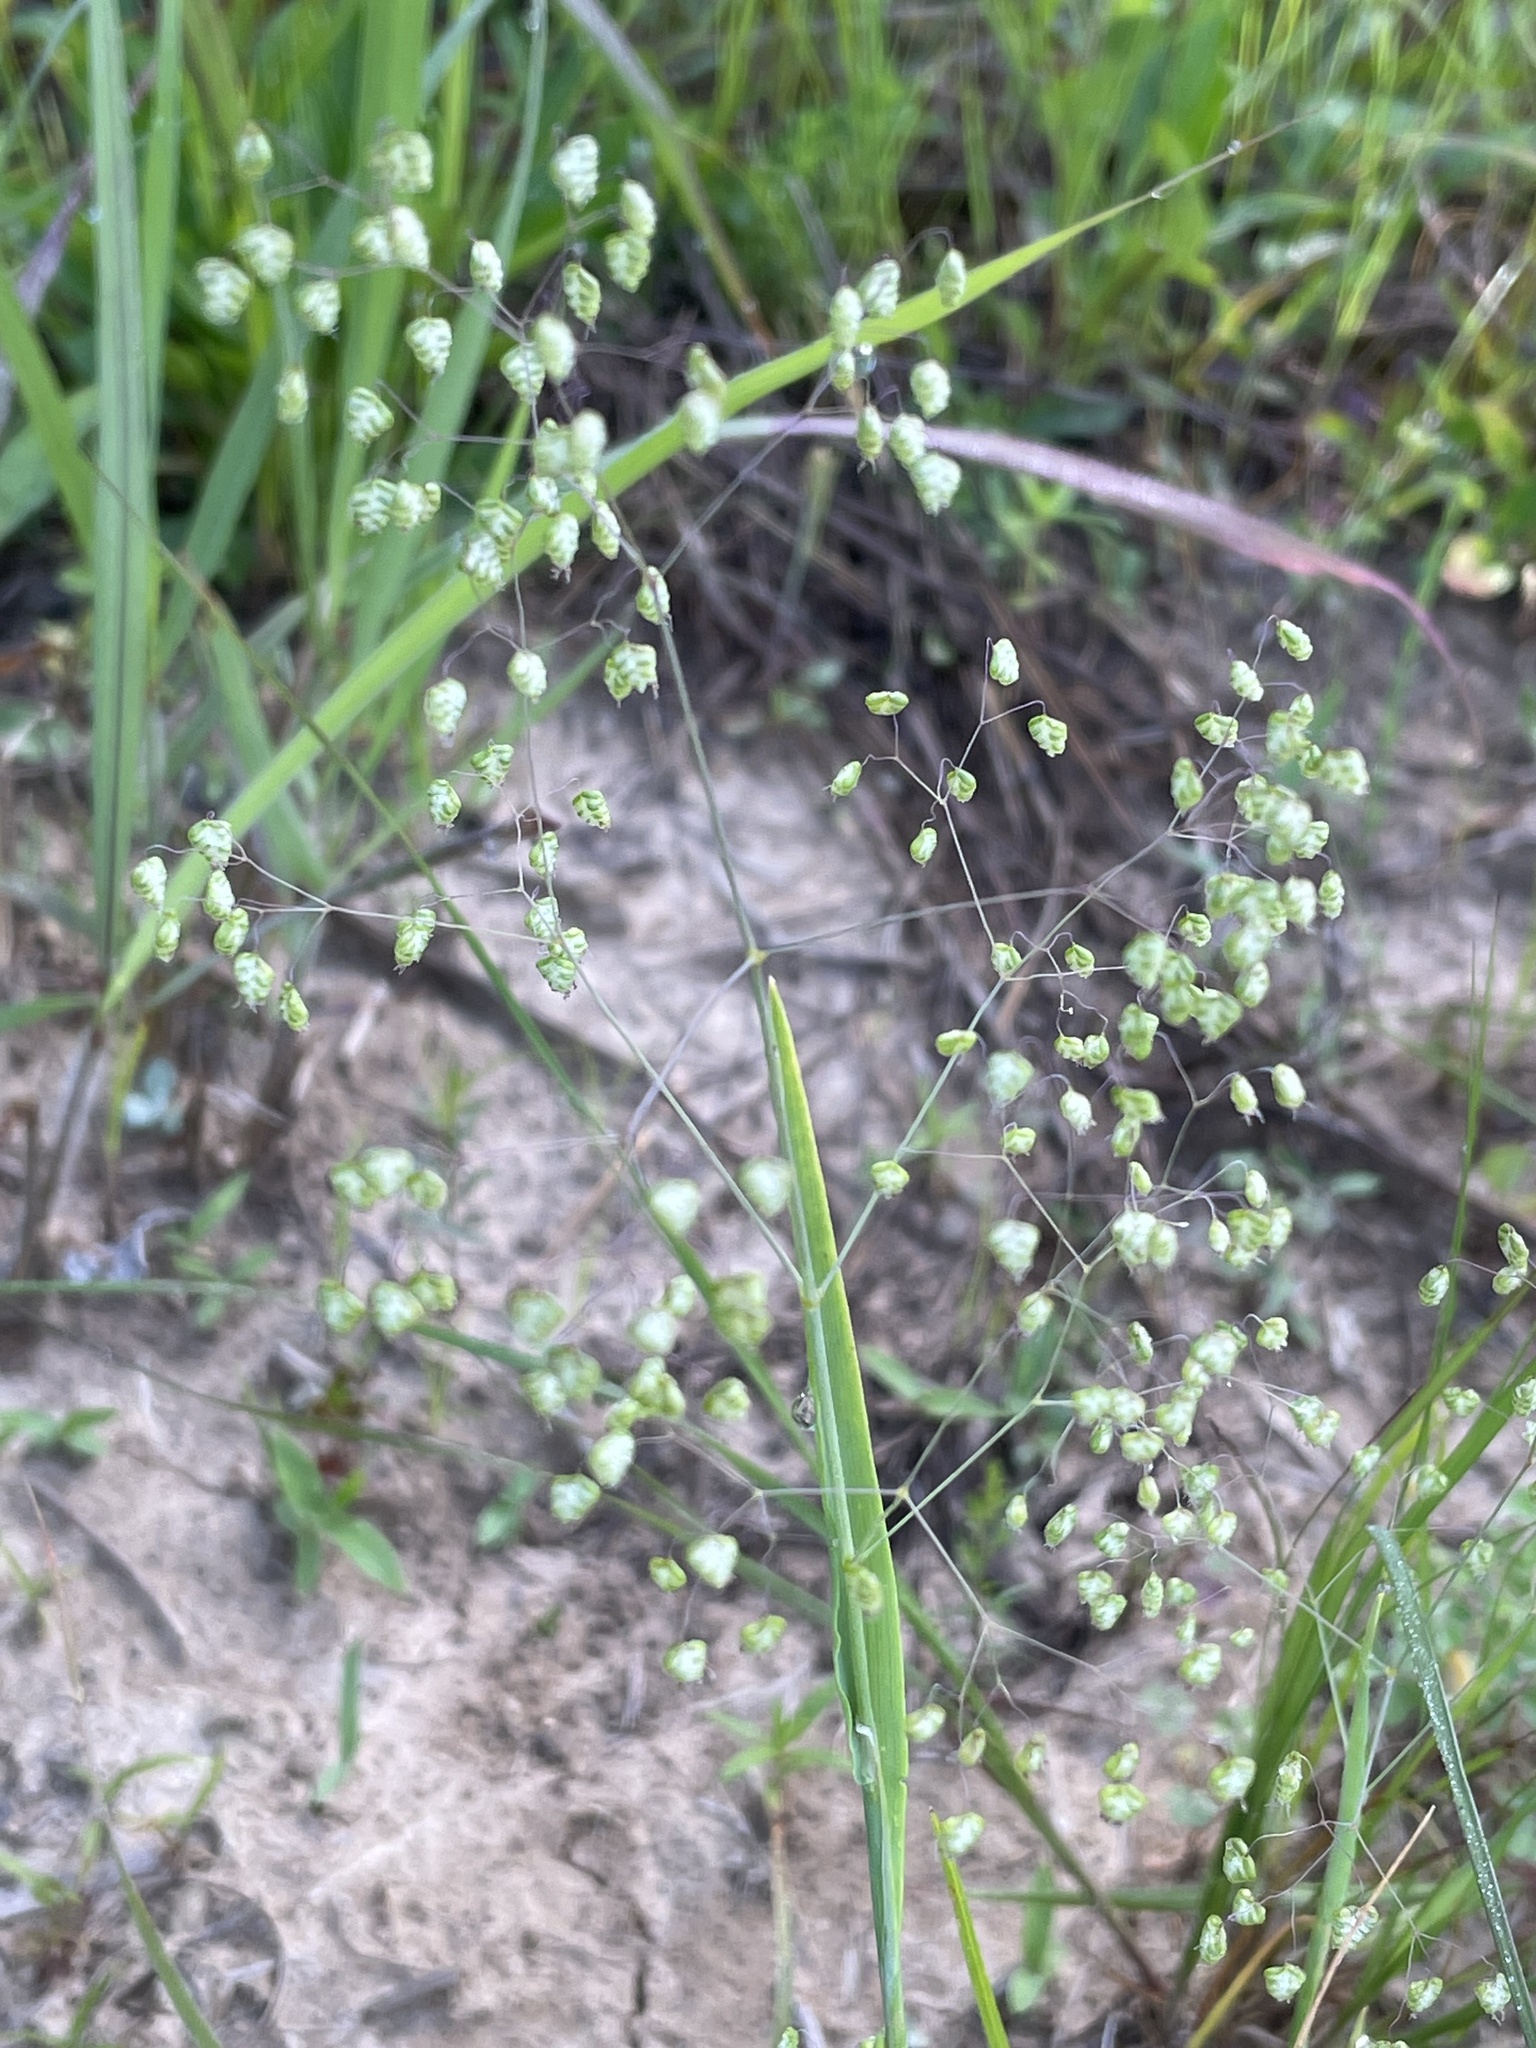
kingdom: Plantae
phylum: Tracheophyta
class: Liliopsida
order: Poales
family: Poaceae
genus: Briza
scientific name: Briza minor
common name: Lesser quaking-grass
